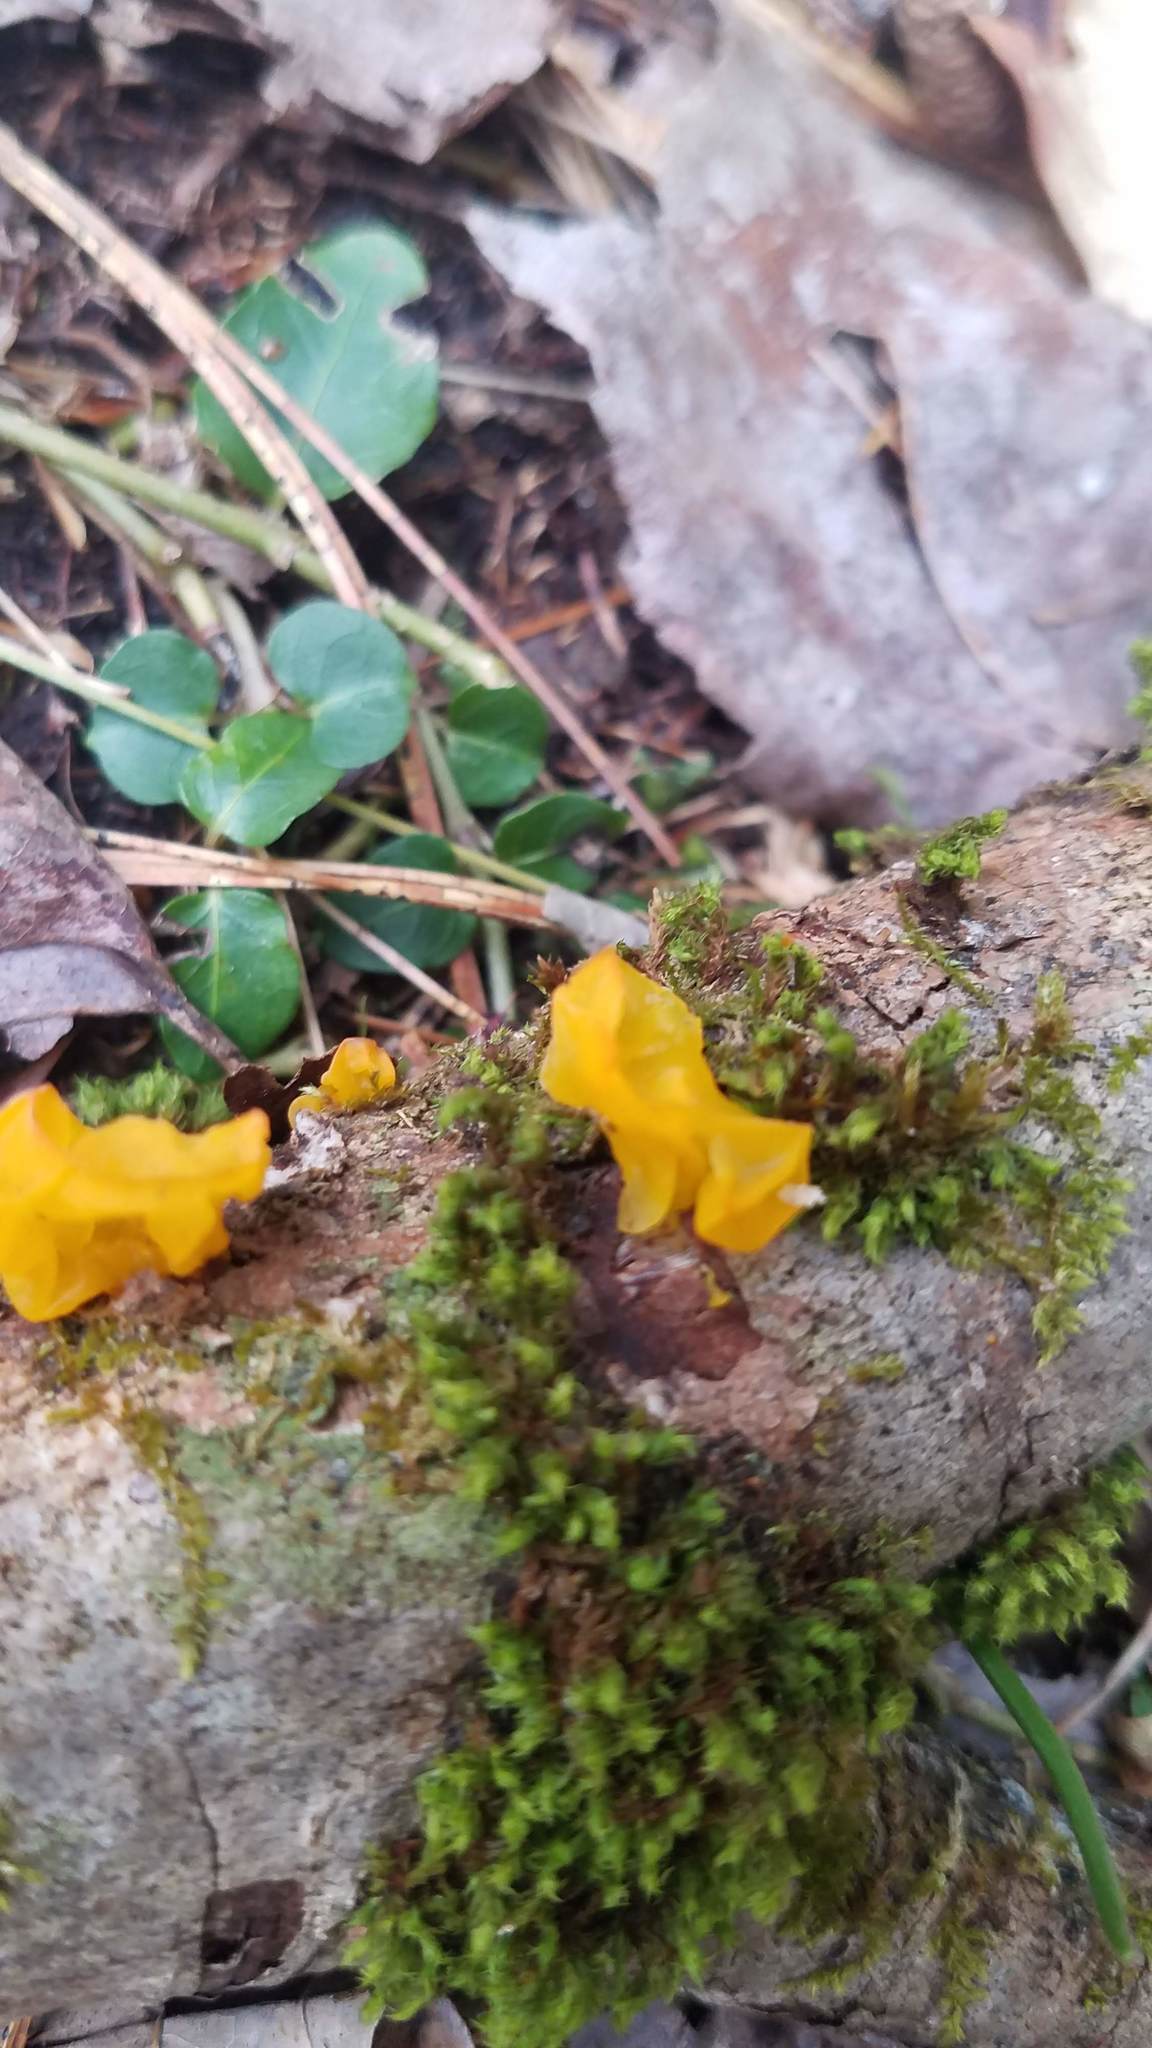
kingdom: Fungi
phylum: Basidiomycota
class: Tremellomycetes
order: Tremellales
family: Tremellaceae
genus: Tremella
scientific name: Tremella mesenterica
